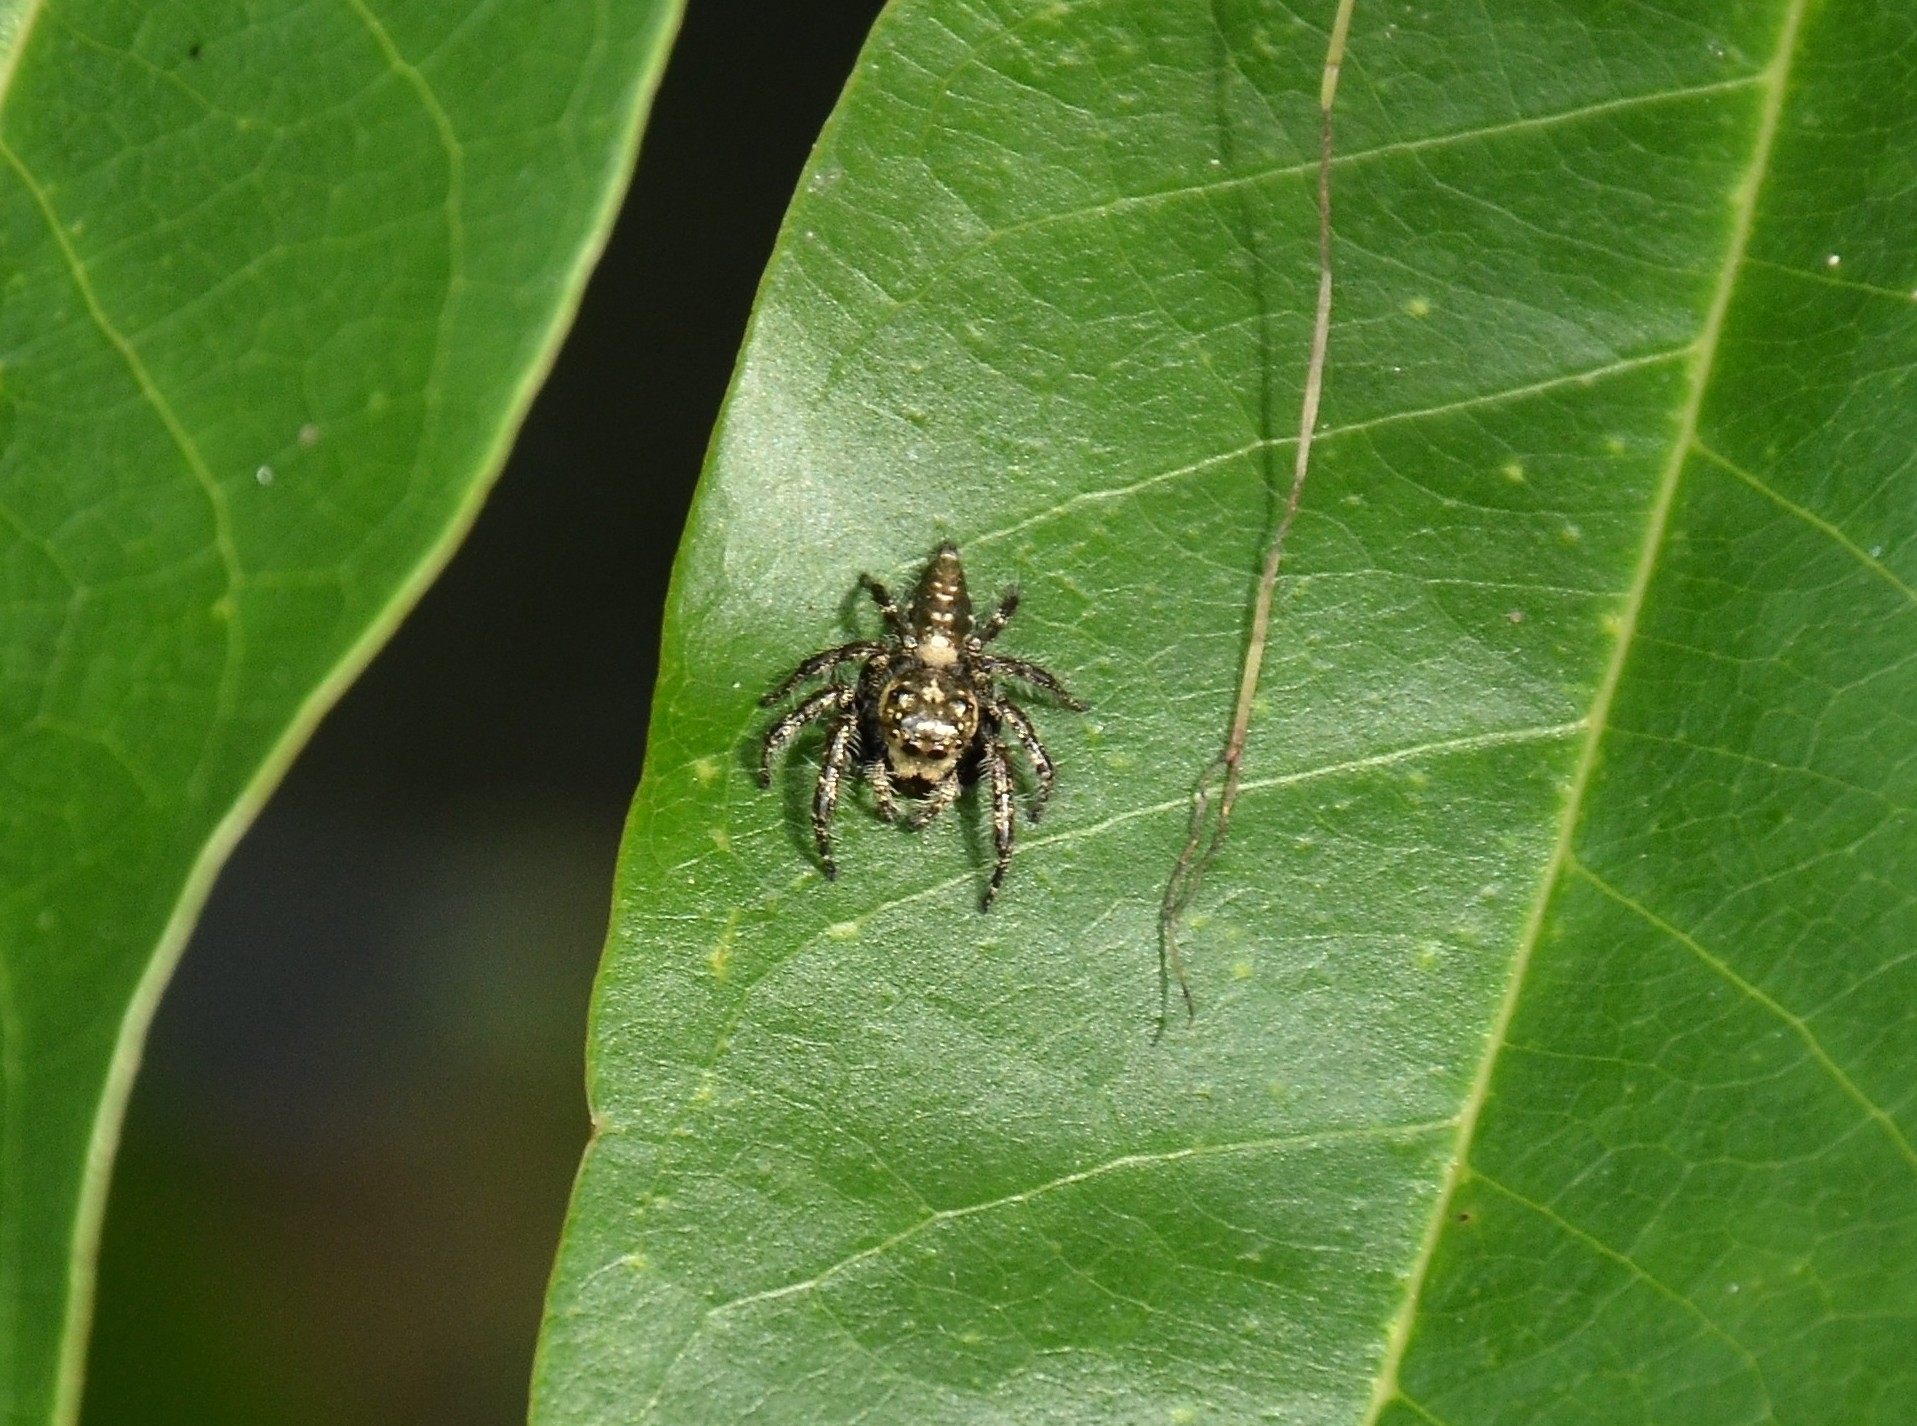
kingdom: Animalia
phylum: Arthropoda
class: Arachnida
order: Araneae
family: Salticidae
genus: Hyllus
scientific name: Hyllus semicupreus
